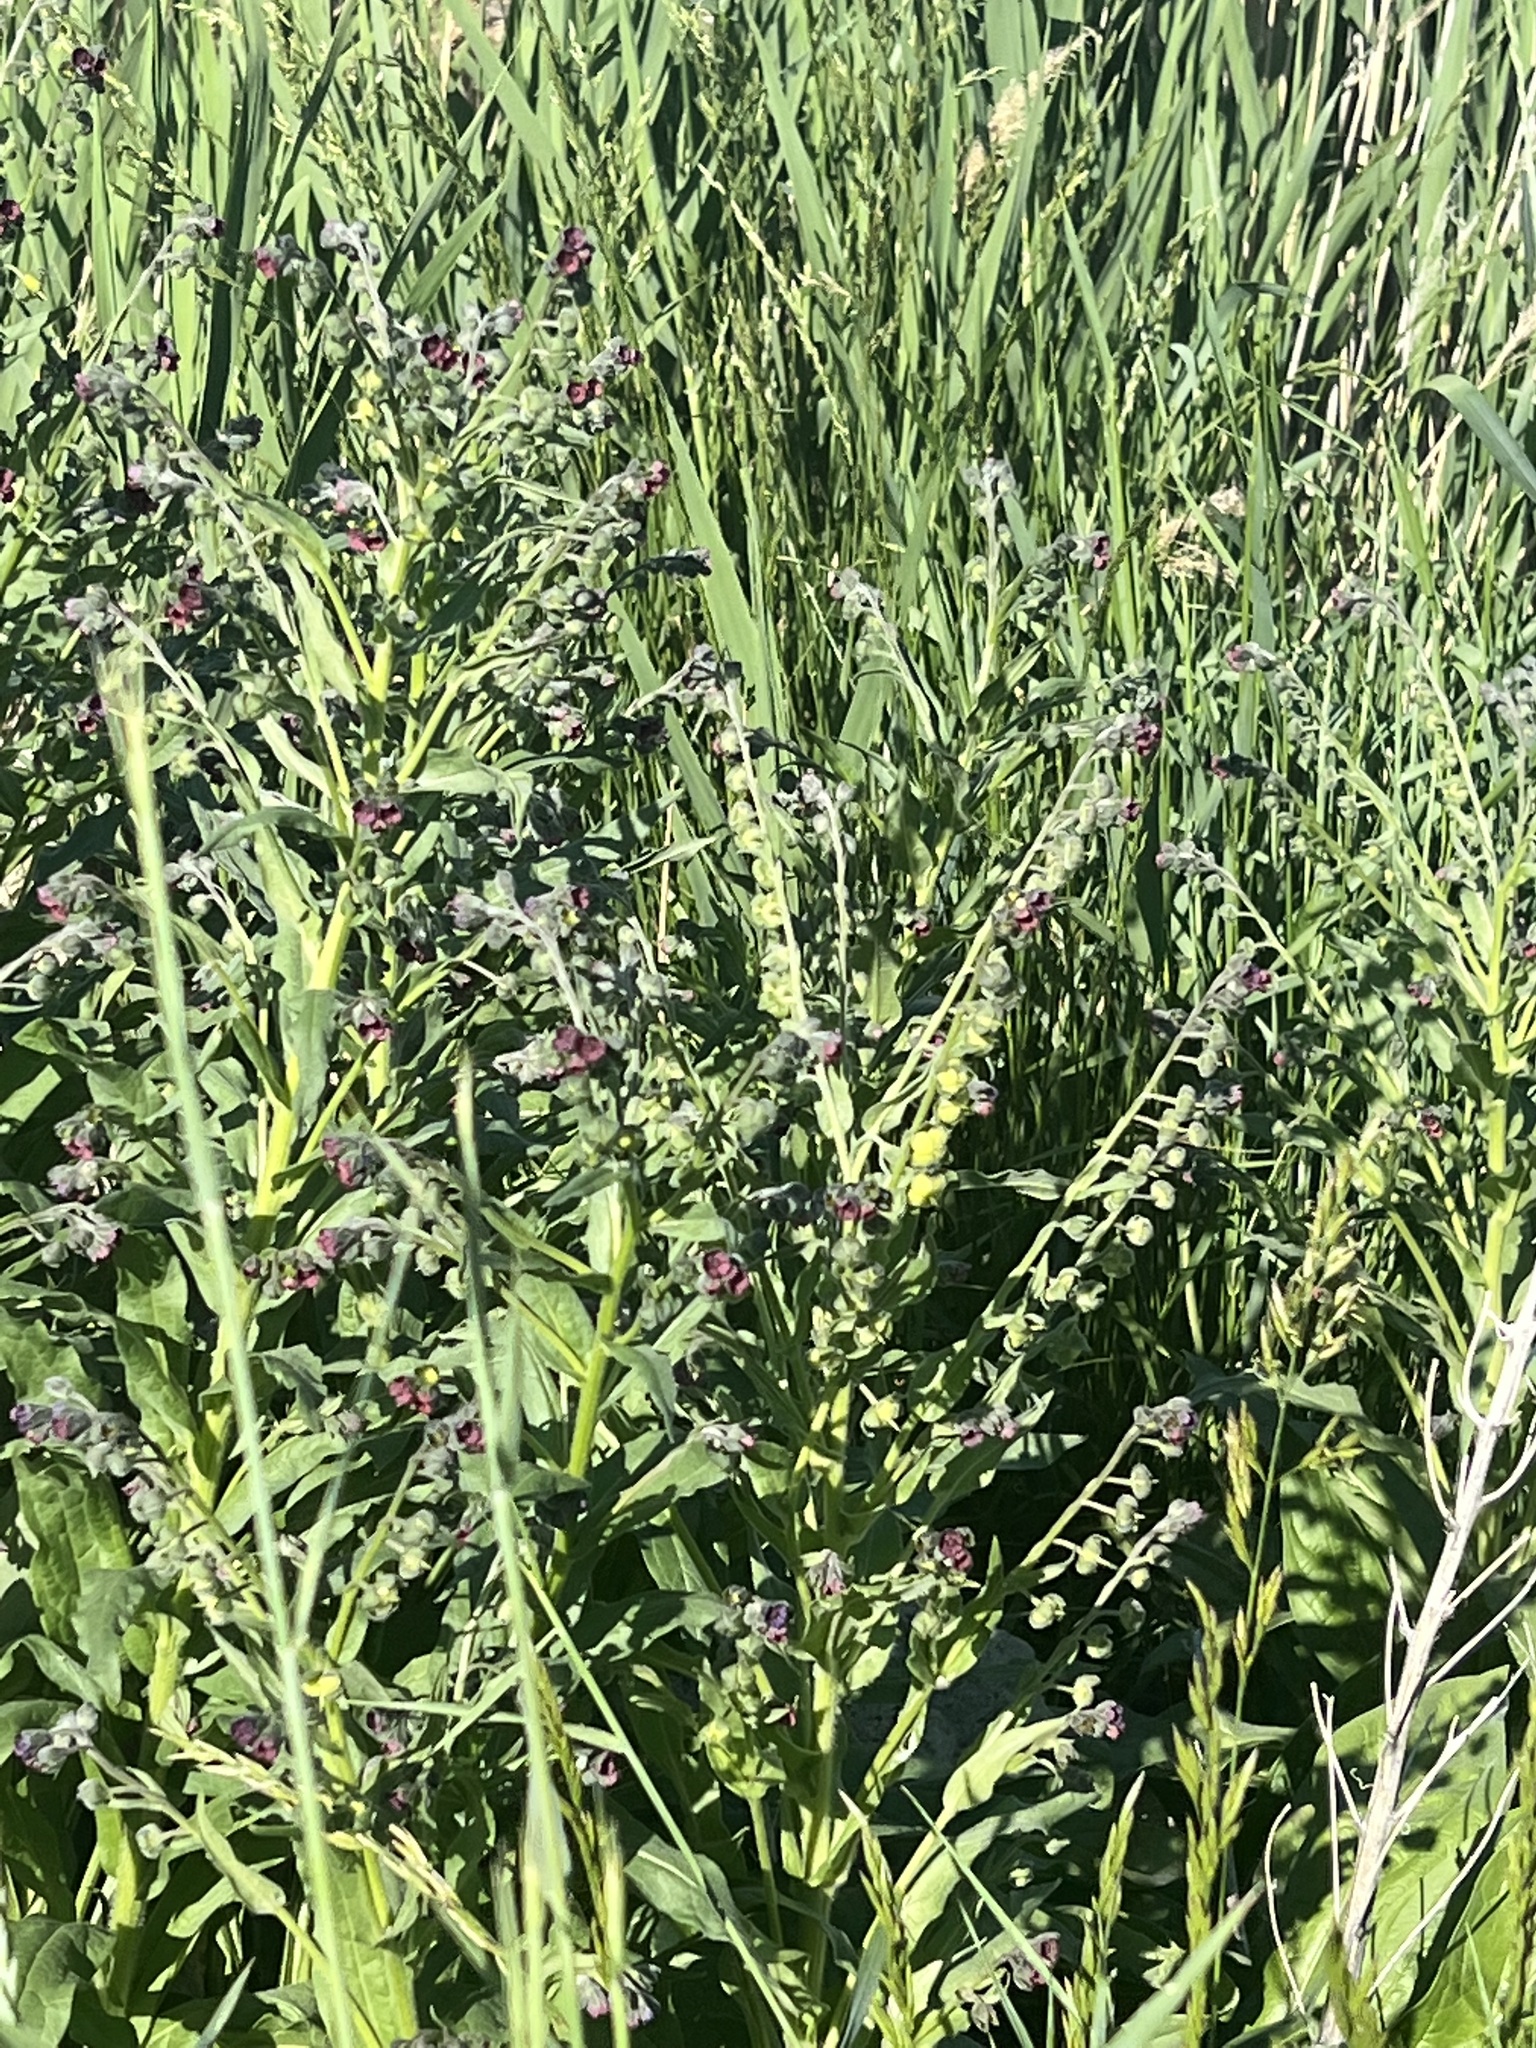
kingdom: Plantae
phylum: Tracheophyta
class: Magnoliopsida
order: Boraginales
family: Boraginaceae
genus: Cynoglossum
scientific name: Cynoglossum officinale
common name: Hound's-tongue
